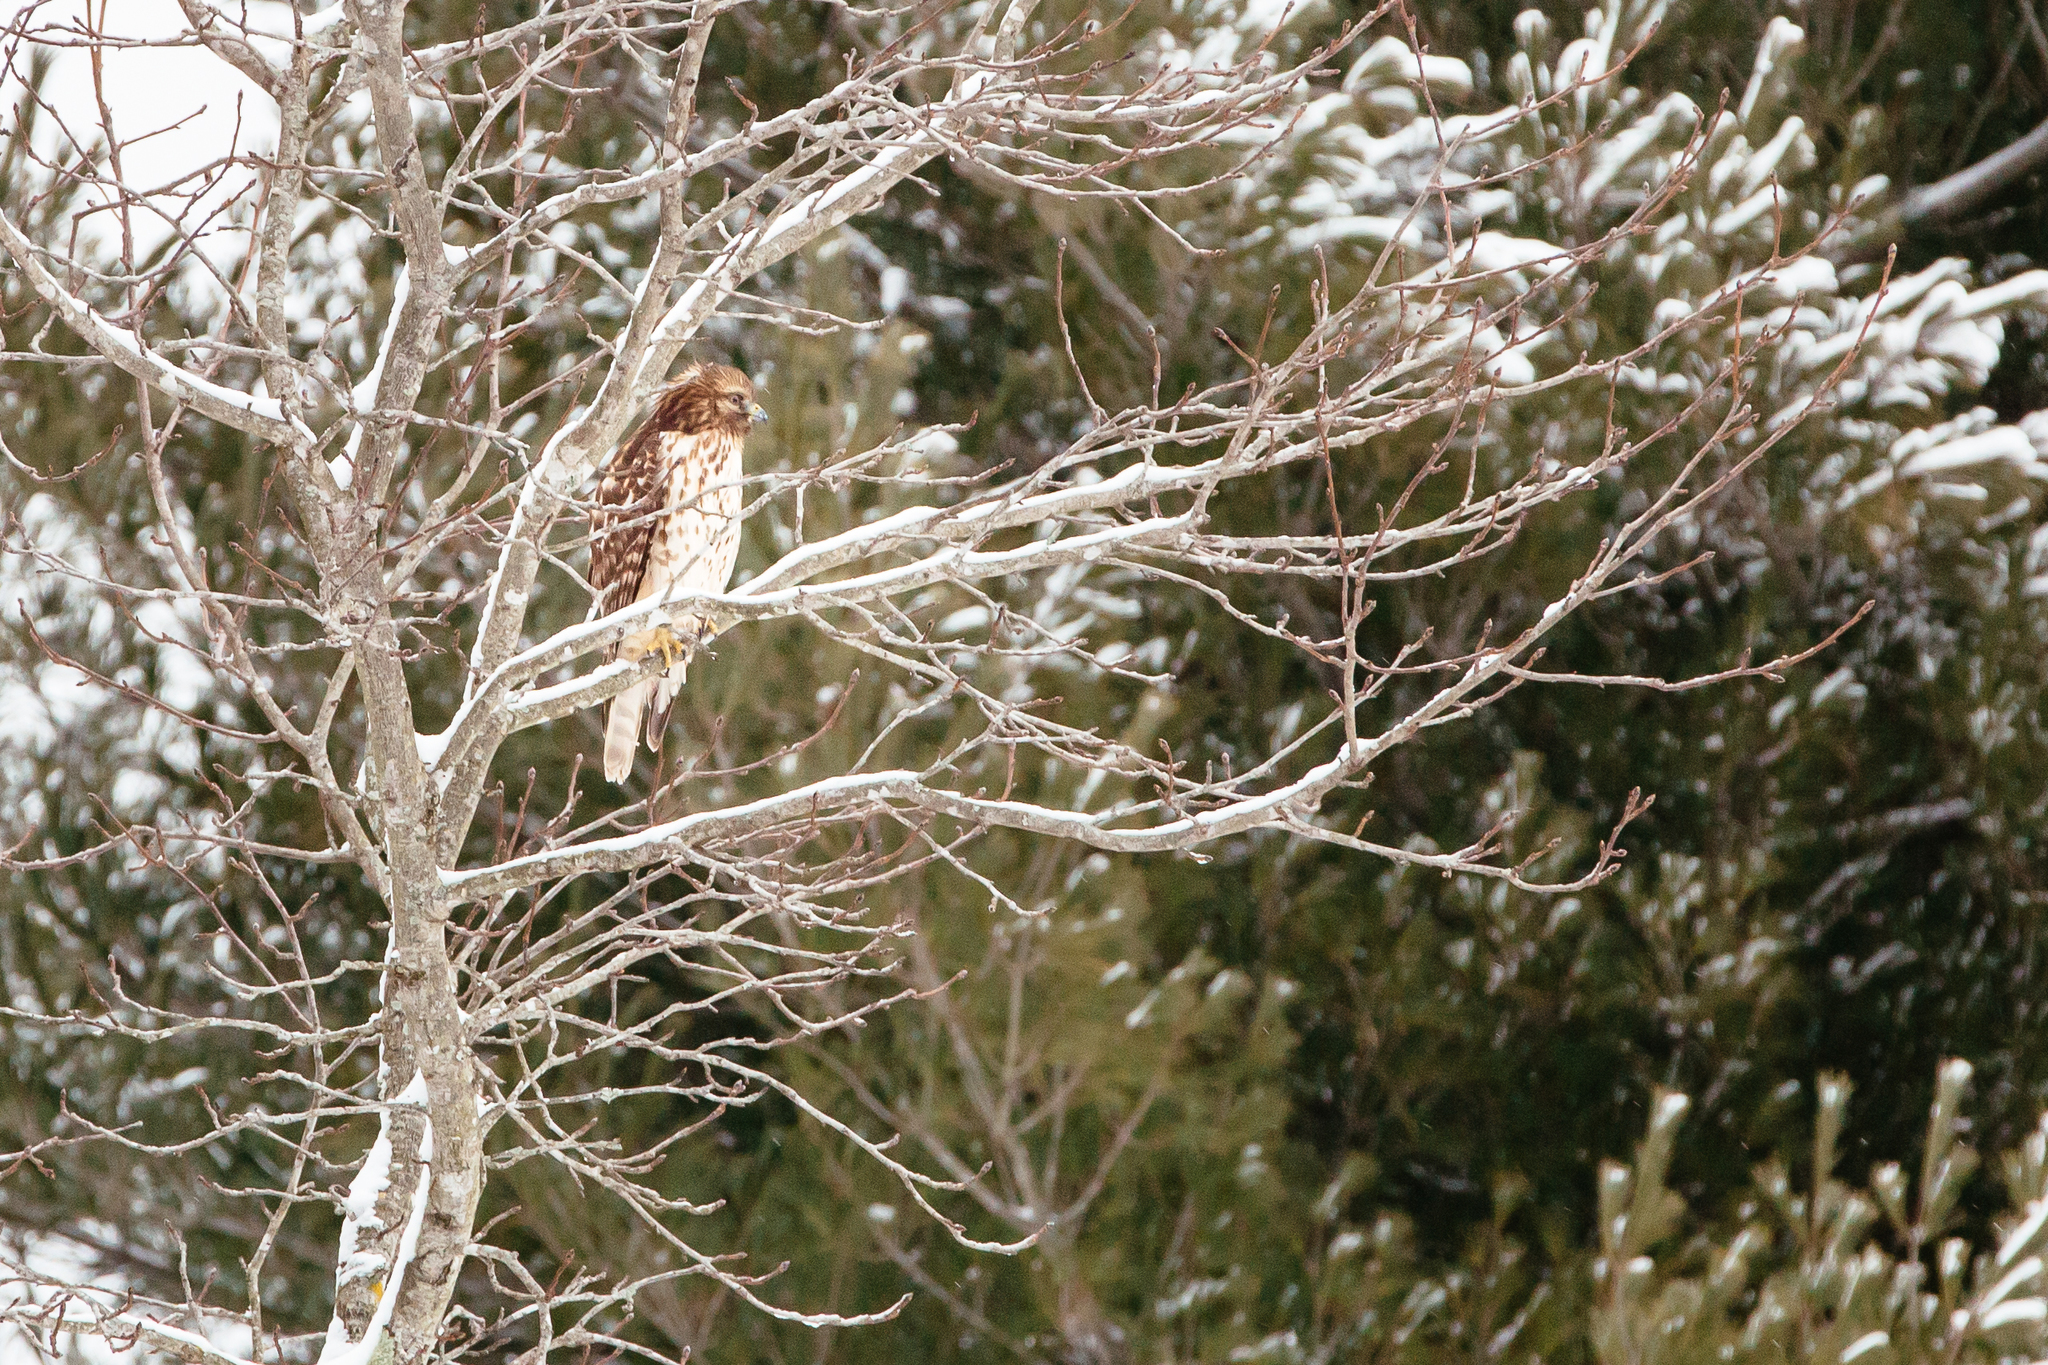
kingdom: Animalia
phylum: Chordata
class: Aves
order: Accipitriformes
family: Accipitridae
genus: Buteo
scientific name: Buteo lineatus
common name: Red-shouldered hawk
